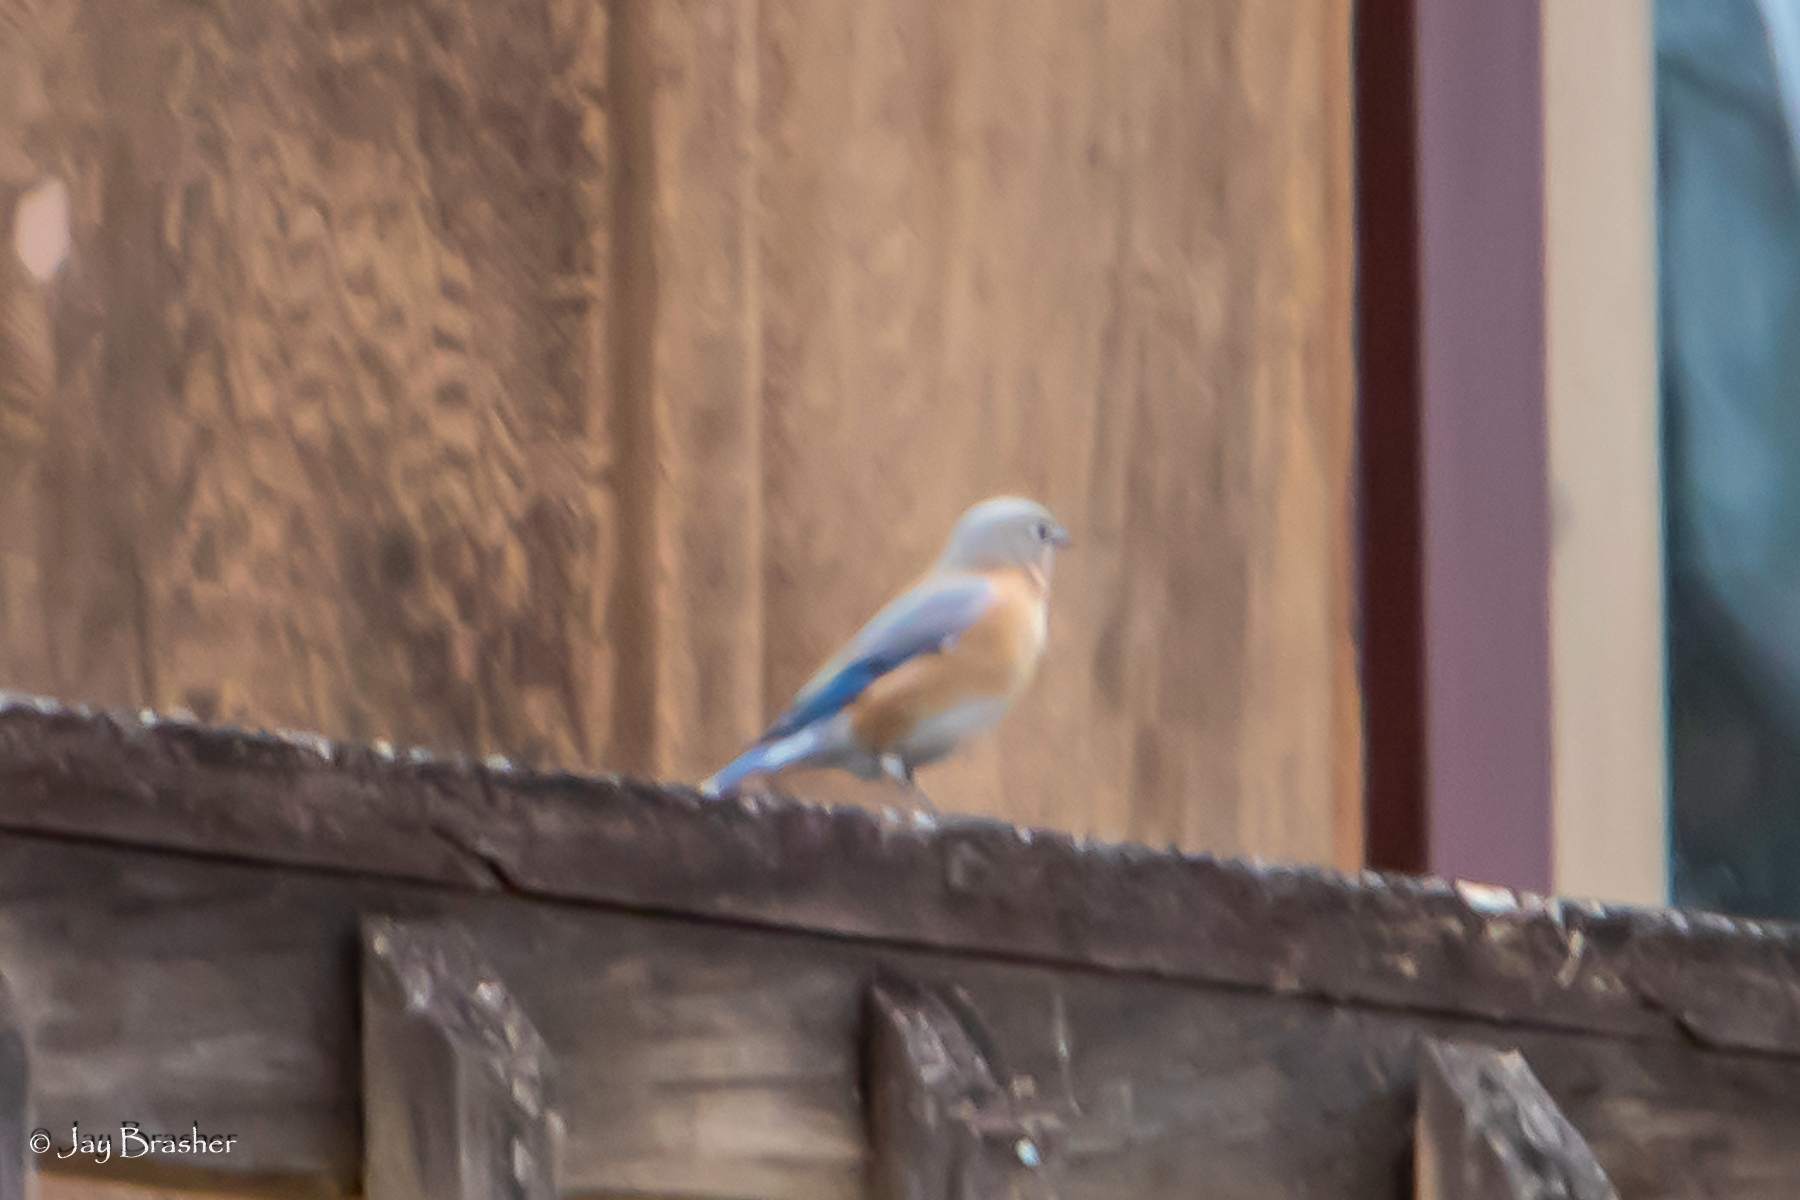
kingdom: Animalia
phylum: Chordata
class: Aves
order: Passeriformes
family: Turdidae
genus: Sialia
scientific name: Sialia sialis
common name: Eastern bluebird
